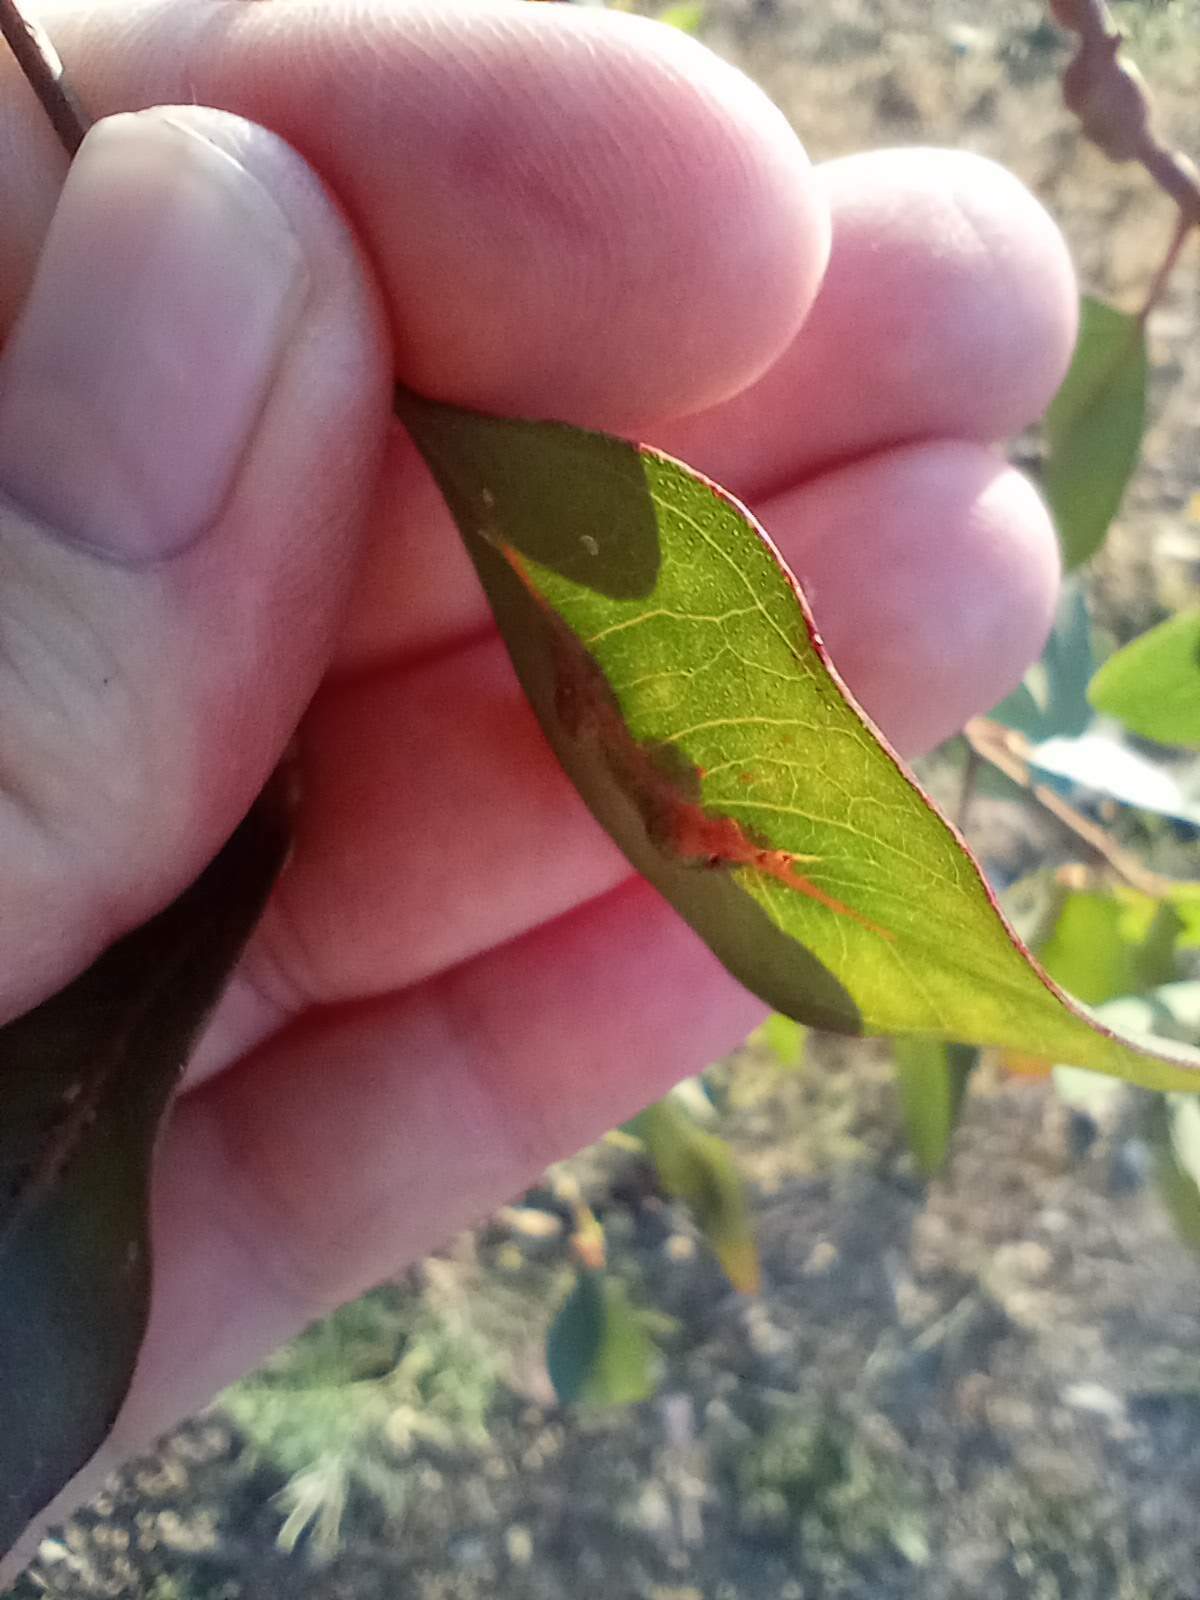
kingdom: Animalia
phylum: Arthropoda
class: Insecta
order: Hymenoptera
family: Eulophidae
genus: Leptocybe
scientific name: Leptocybe invasa
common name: Gall wasp
